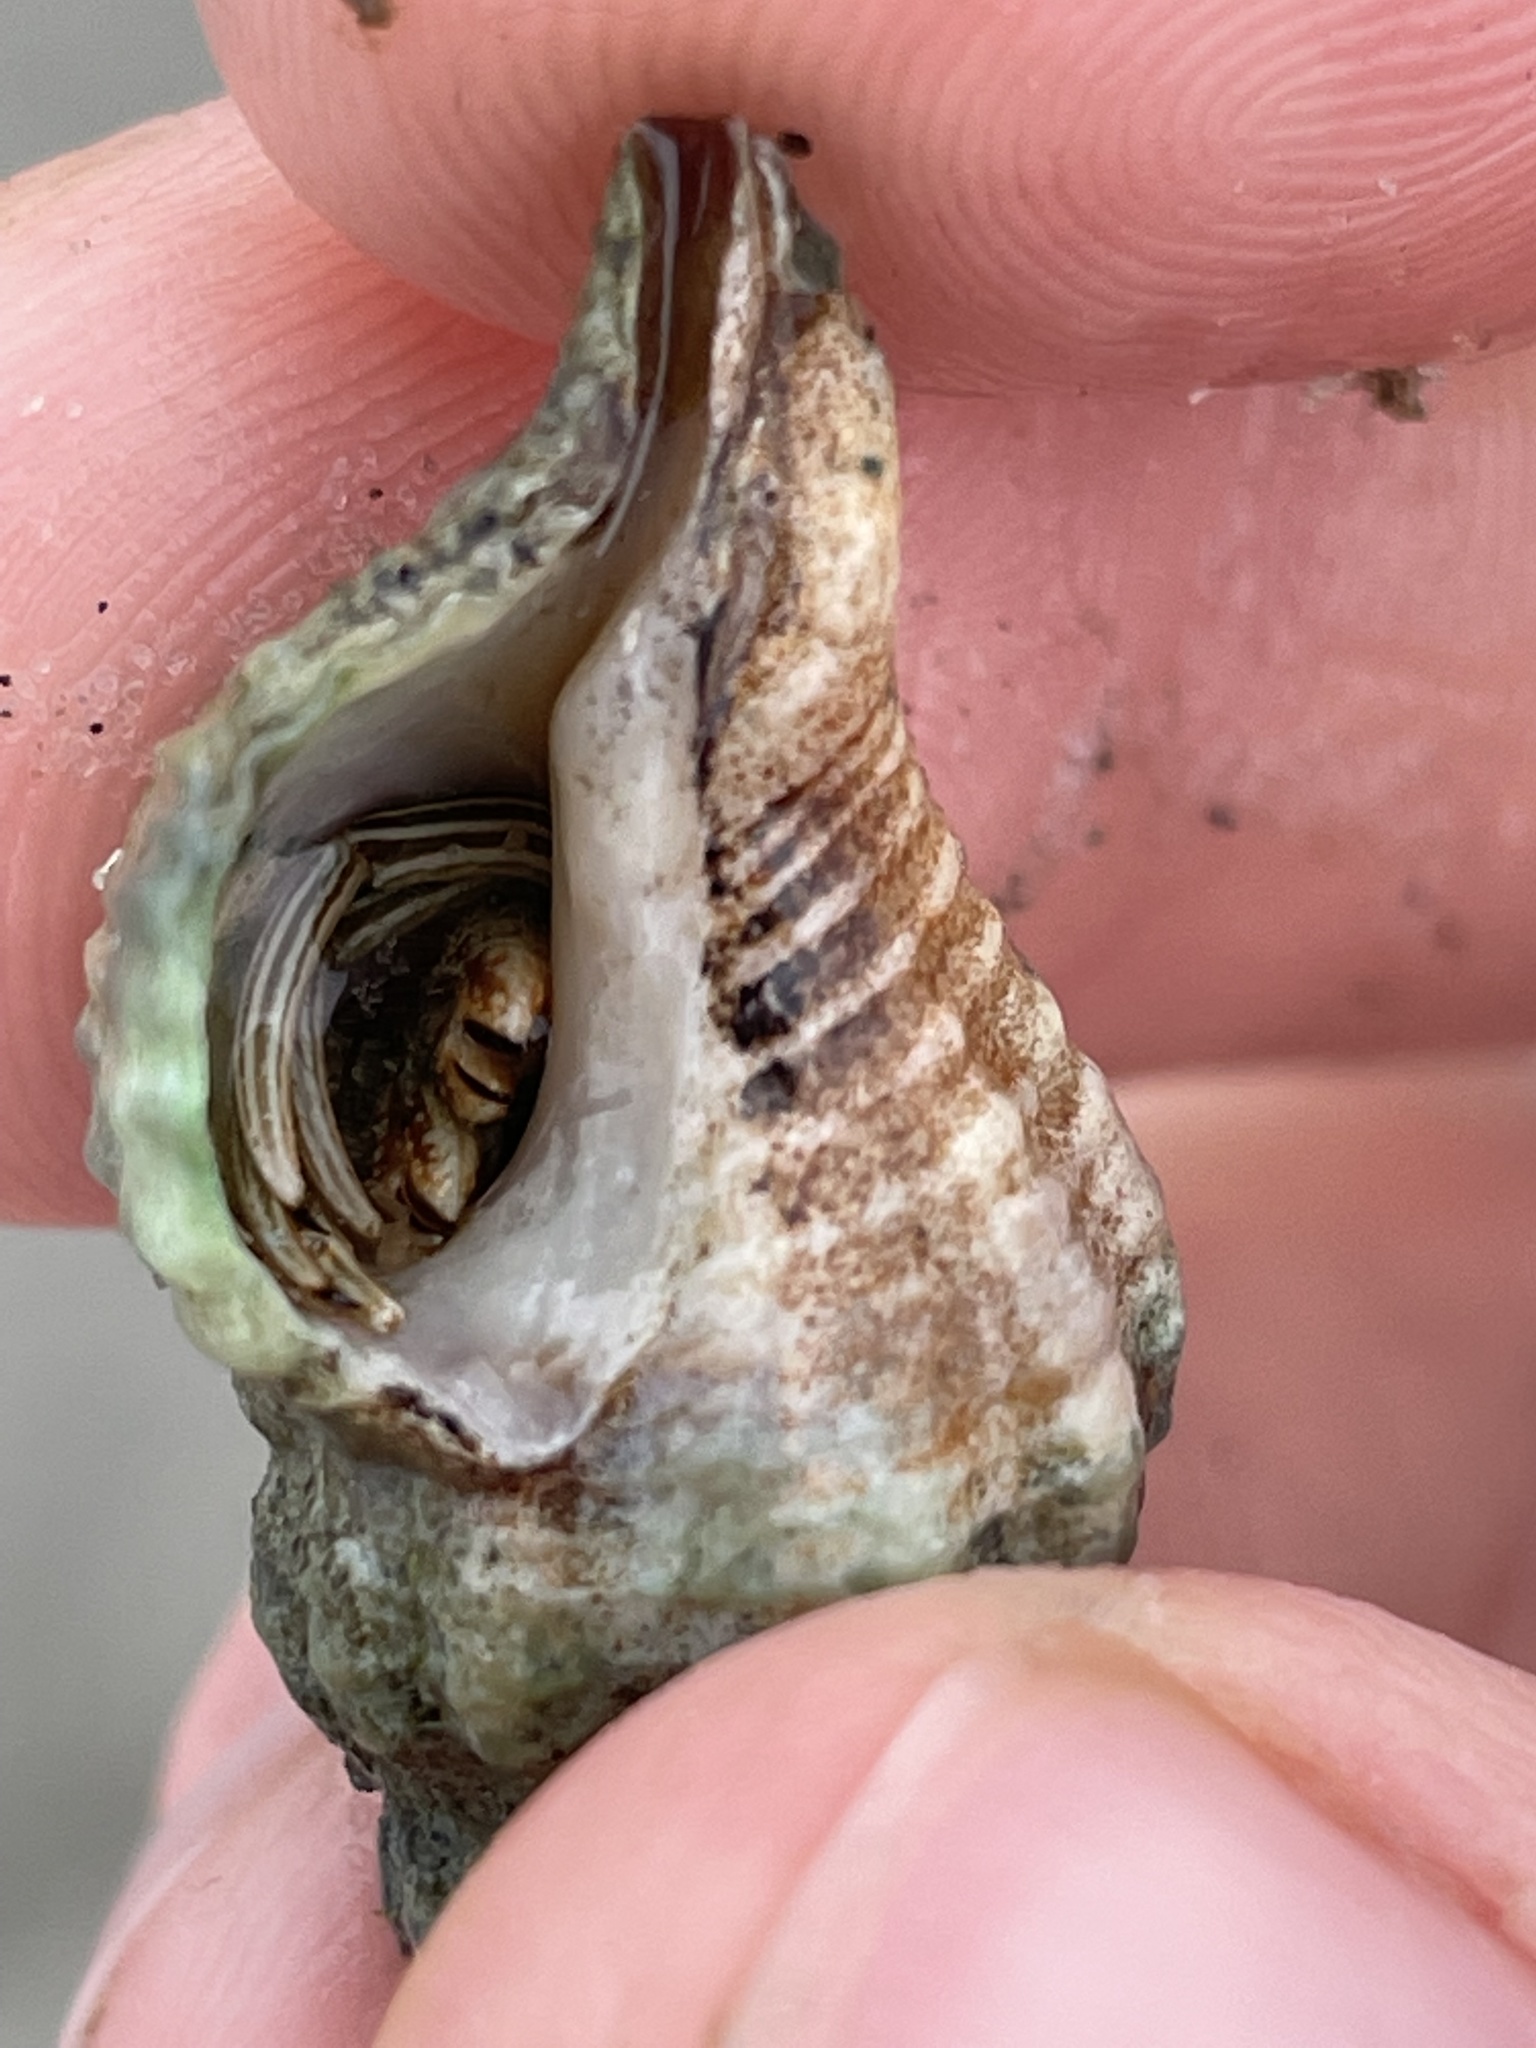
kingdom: Animalia
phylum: Arthropoda
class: Malacostraca
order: Decapoda
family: Diogenidae
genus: Clibanarius
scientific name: Clibanarius vittatus
